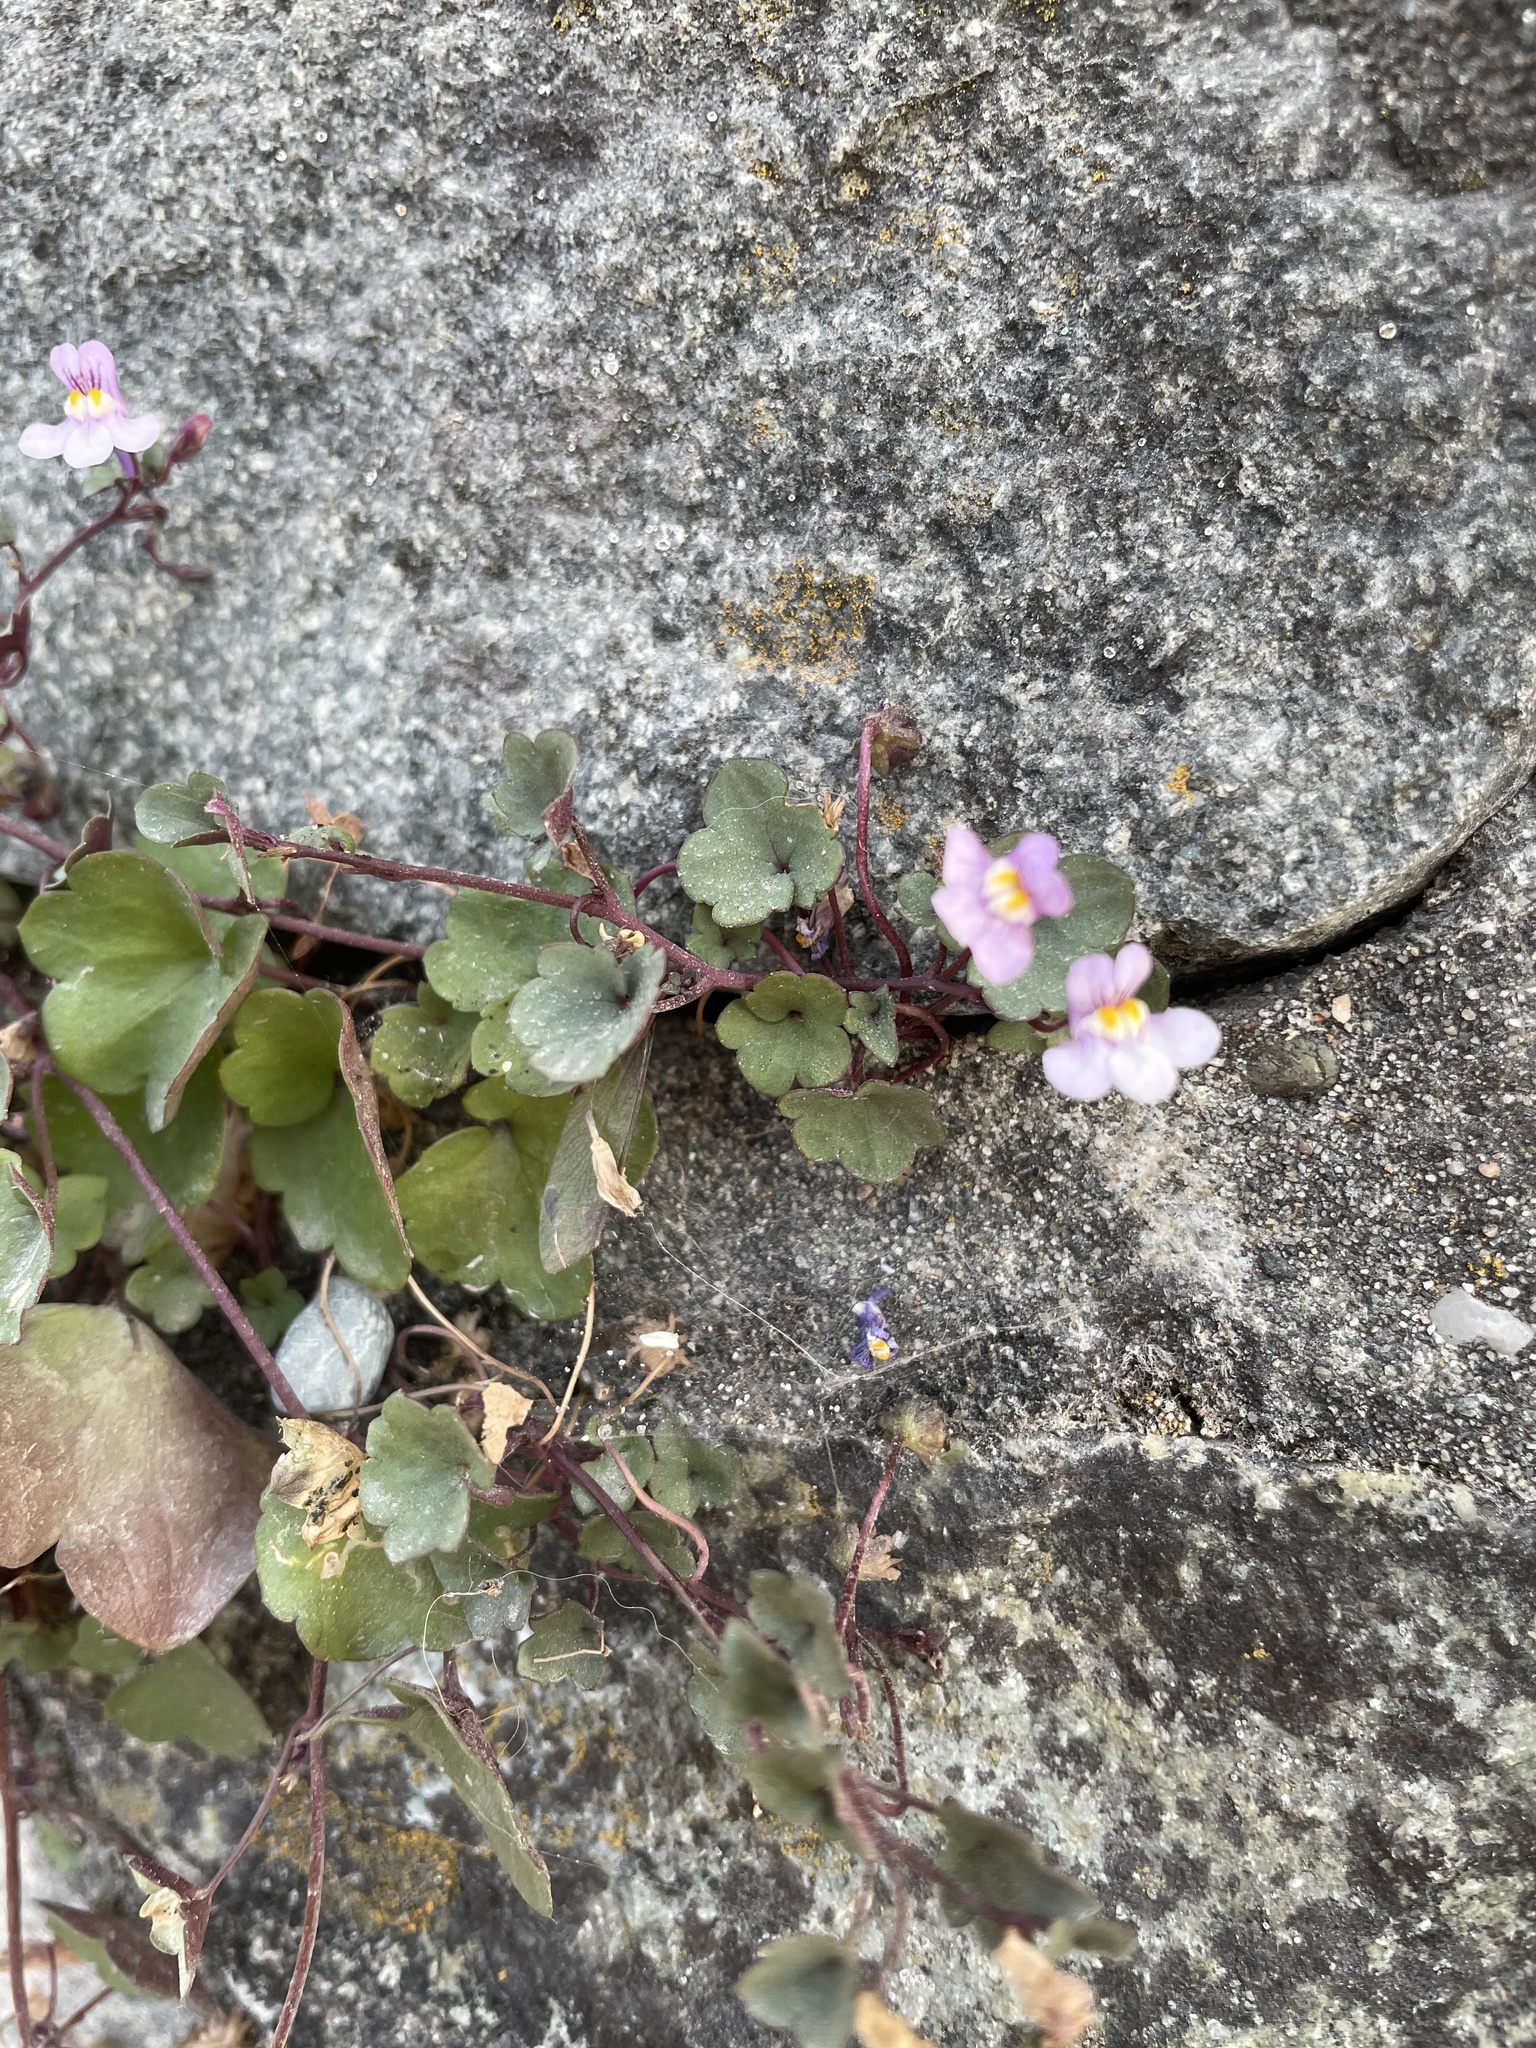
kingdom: Plantae
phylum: Tracheophyta
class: Magnoliopsida
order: Lamiales
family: Plantaginaceae
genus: Cymbalaria
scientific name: Cymbalaria muralis
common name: Ivy-leaved toadflax
